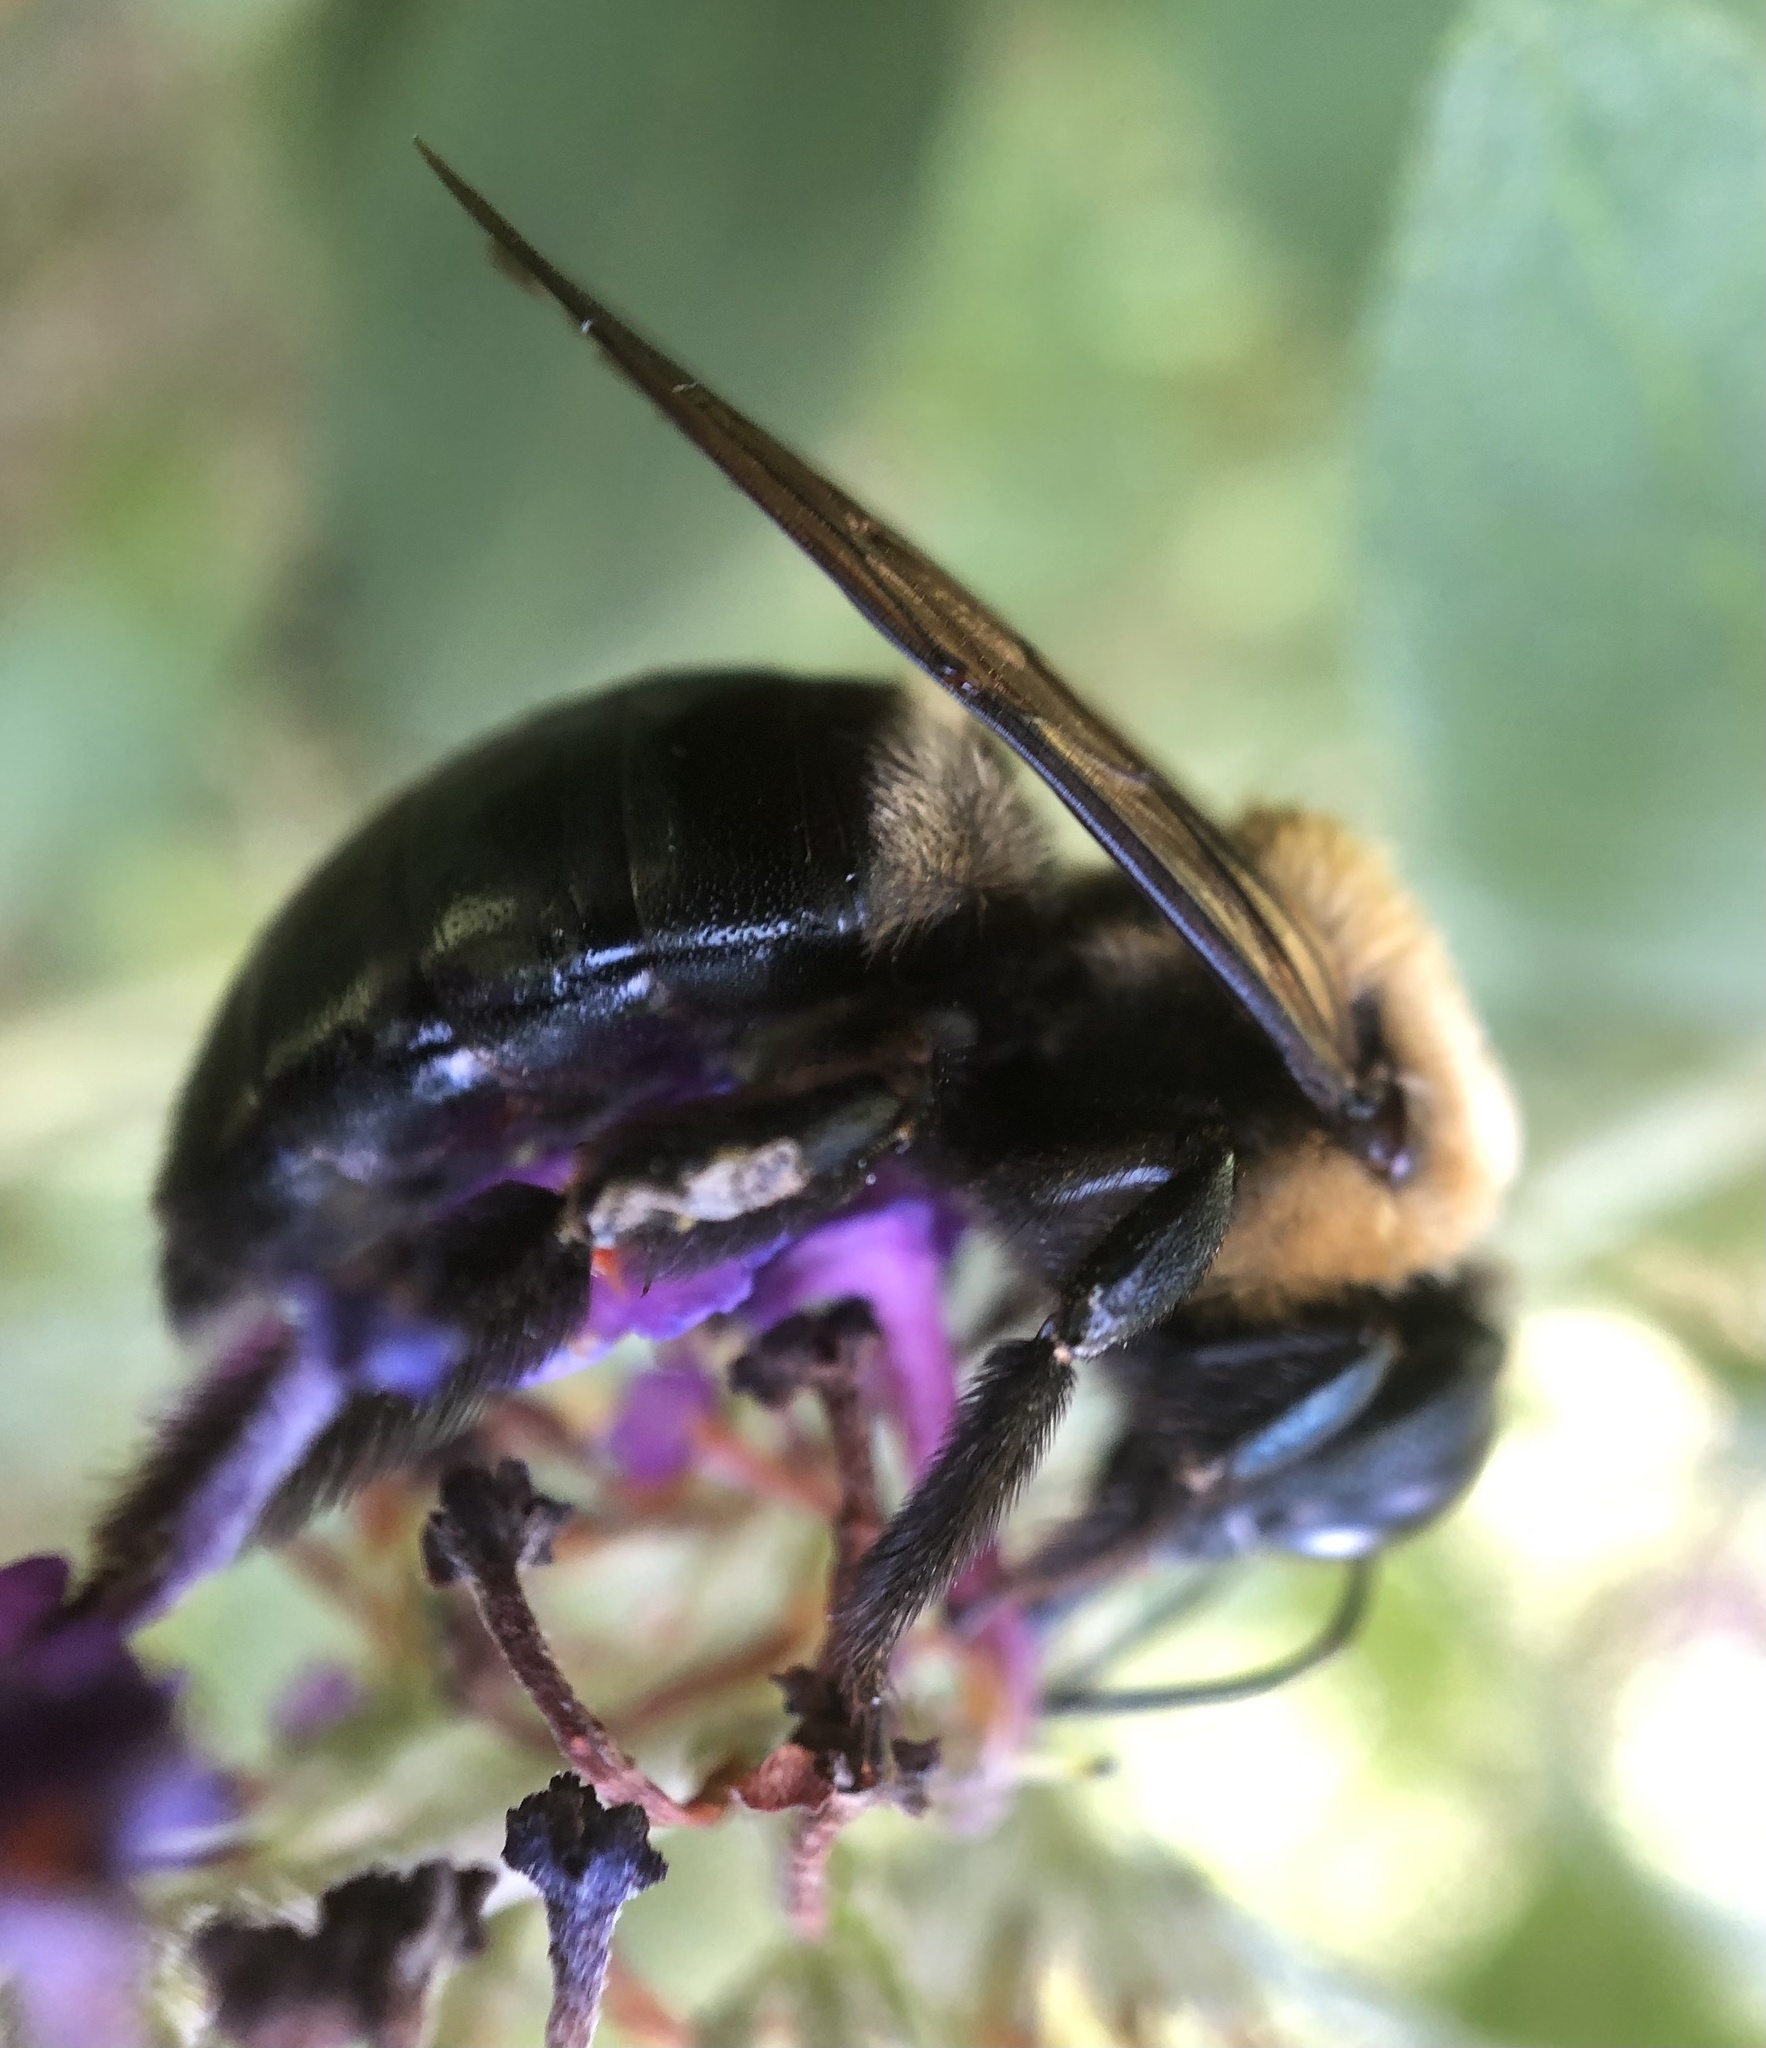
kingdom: Animalia
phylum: Arthropoda
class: Insecta
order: Hymenoptera
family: Apidae
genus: Xylocopa
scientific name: Xylocopa virginica
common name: Carpenter bee
